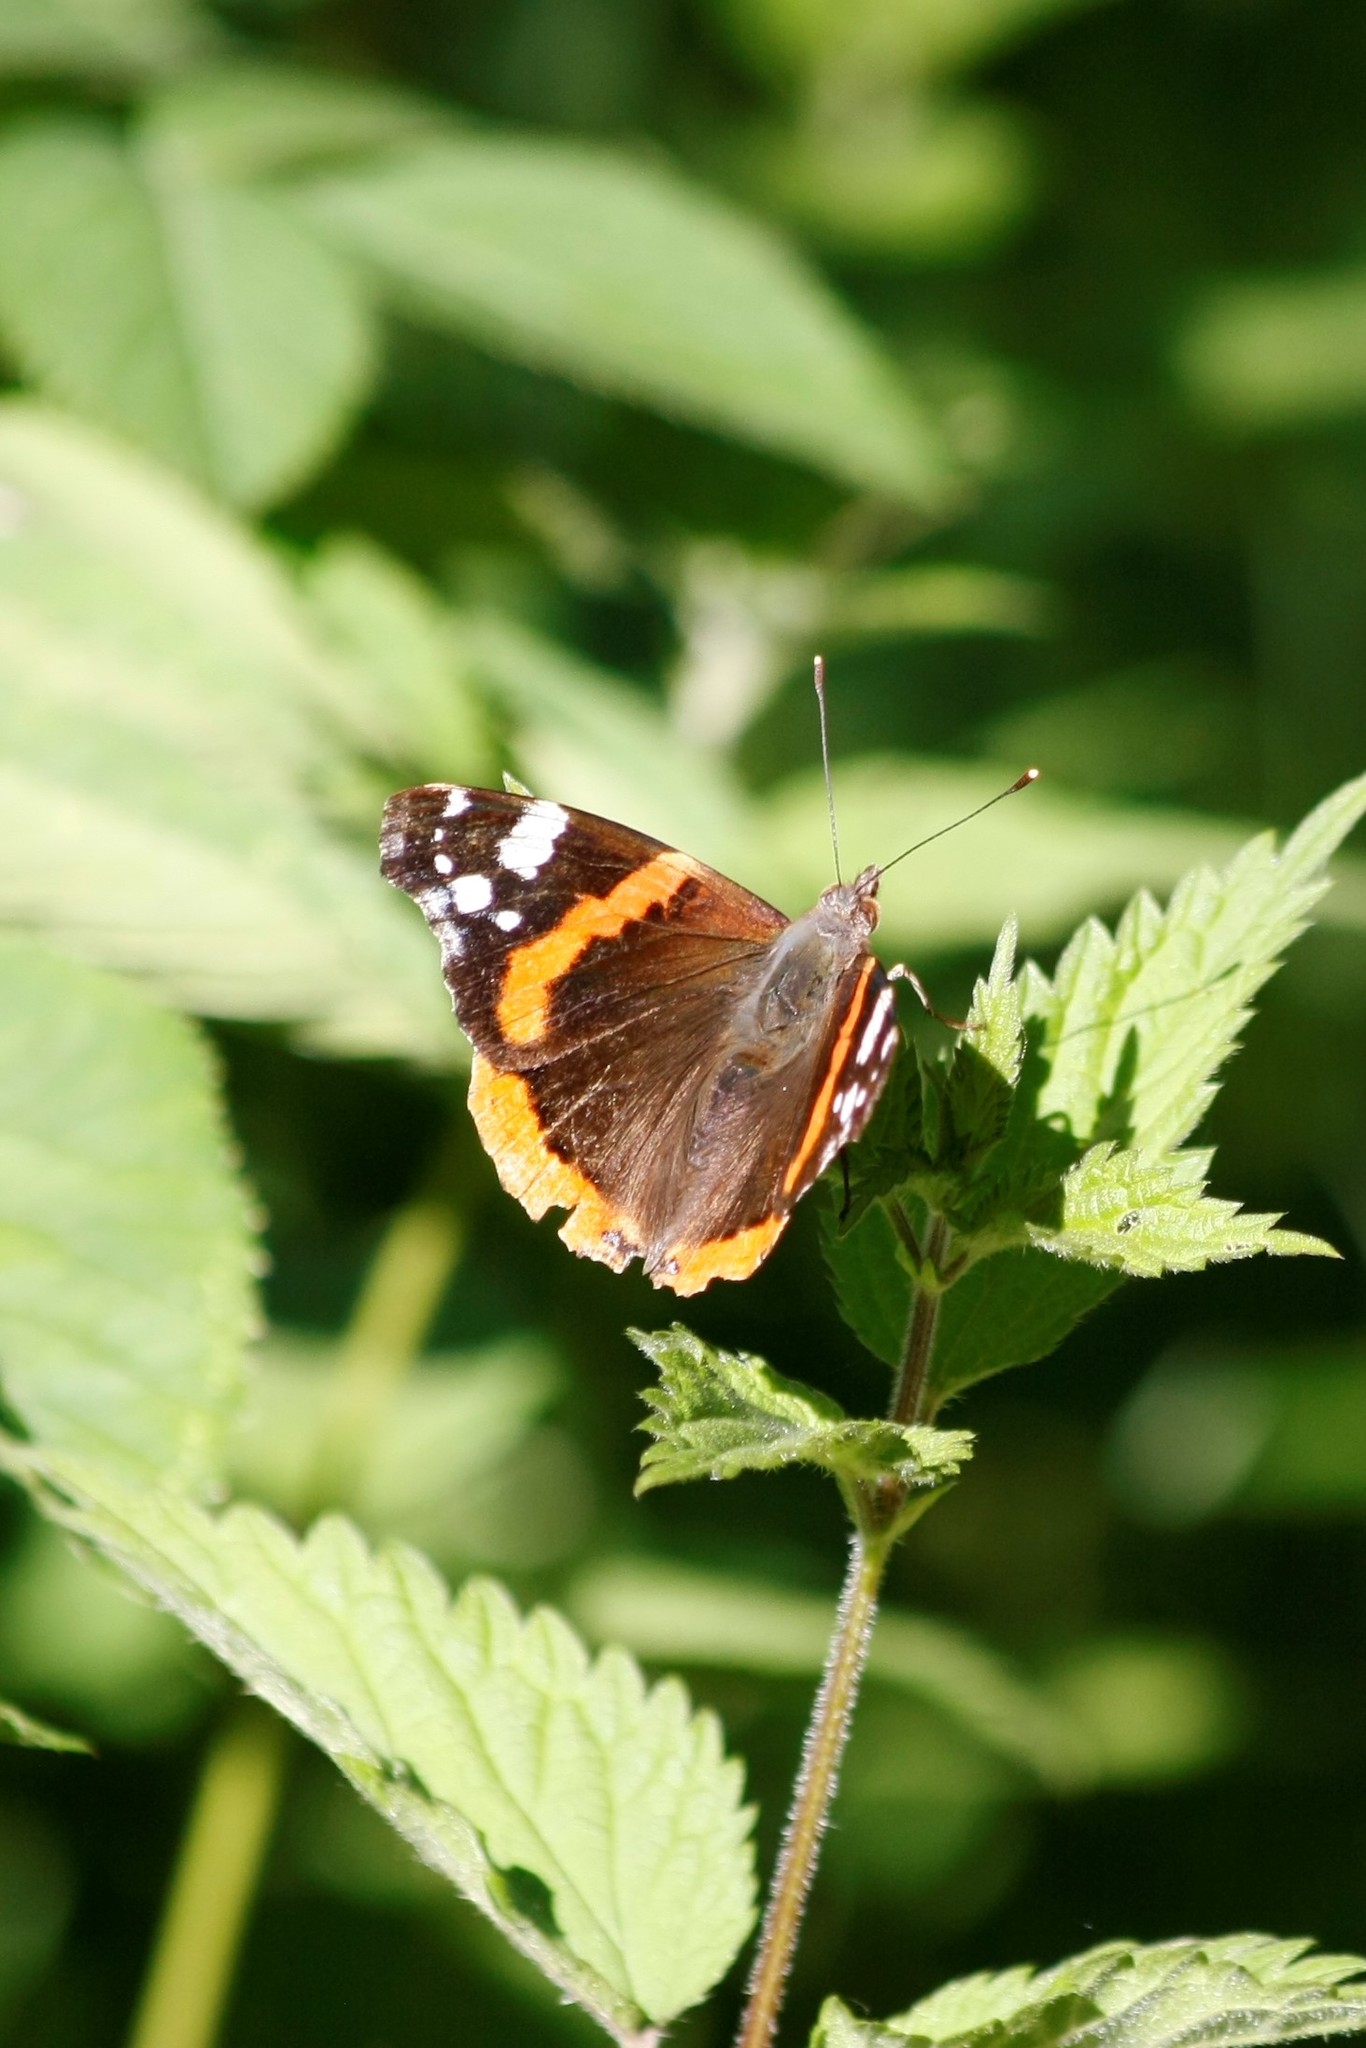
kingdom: Animalia
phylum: Arthropoda
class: Insecta
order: Lepidoptera
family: Nymphalidae
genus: Vanessa
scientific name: Vanessa atalanta
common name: Red admiral
